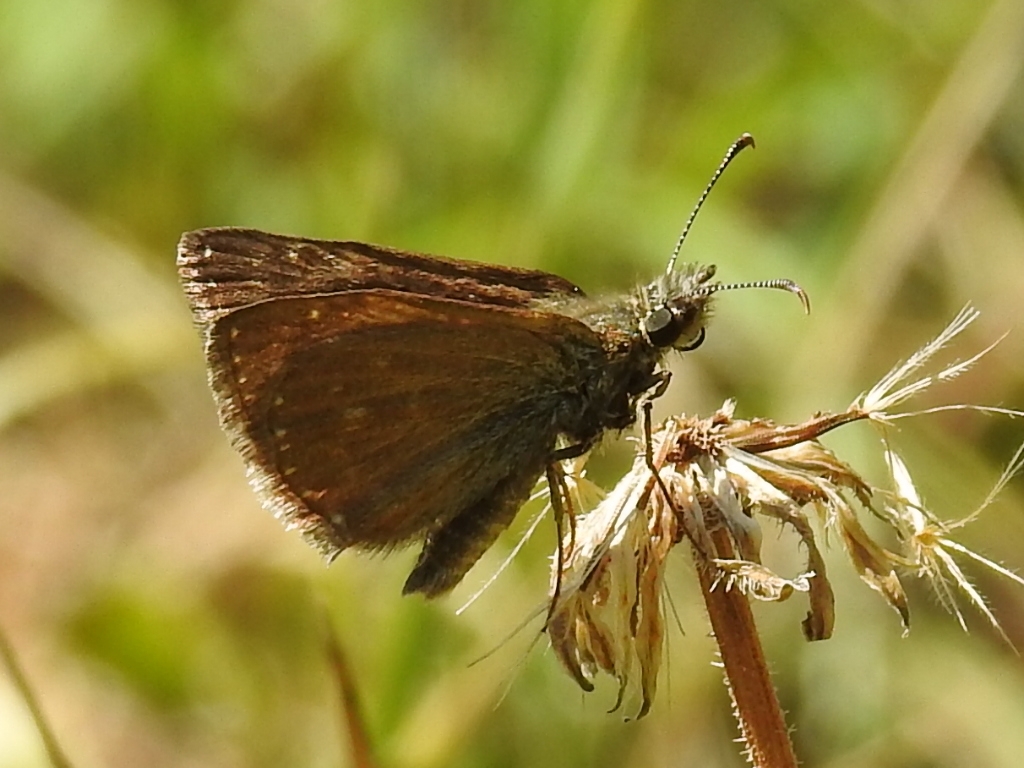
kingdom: Animalia
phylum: Arthropoda
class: Insecta
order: Lepidoptera
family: Hesperiidae
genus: Erynnis
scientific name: Erynnis tages
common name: Dingy skipper
